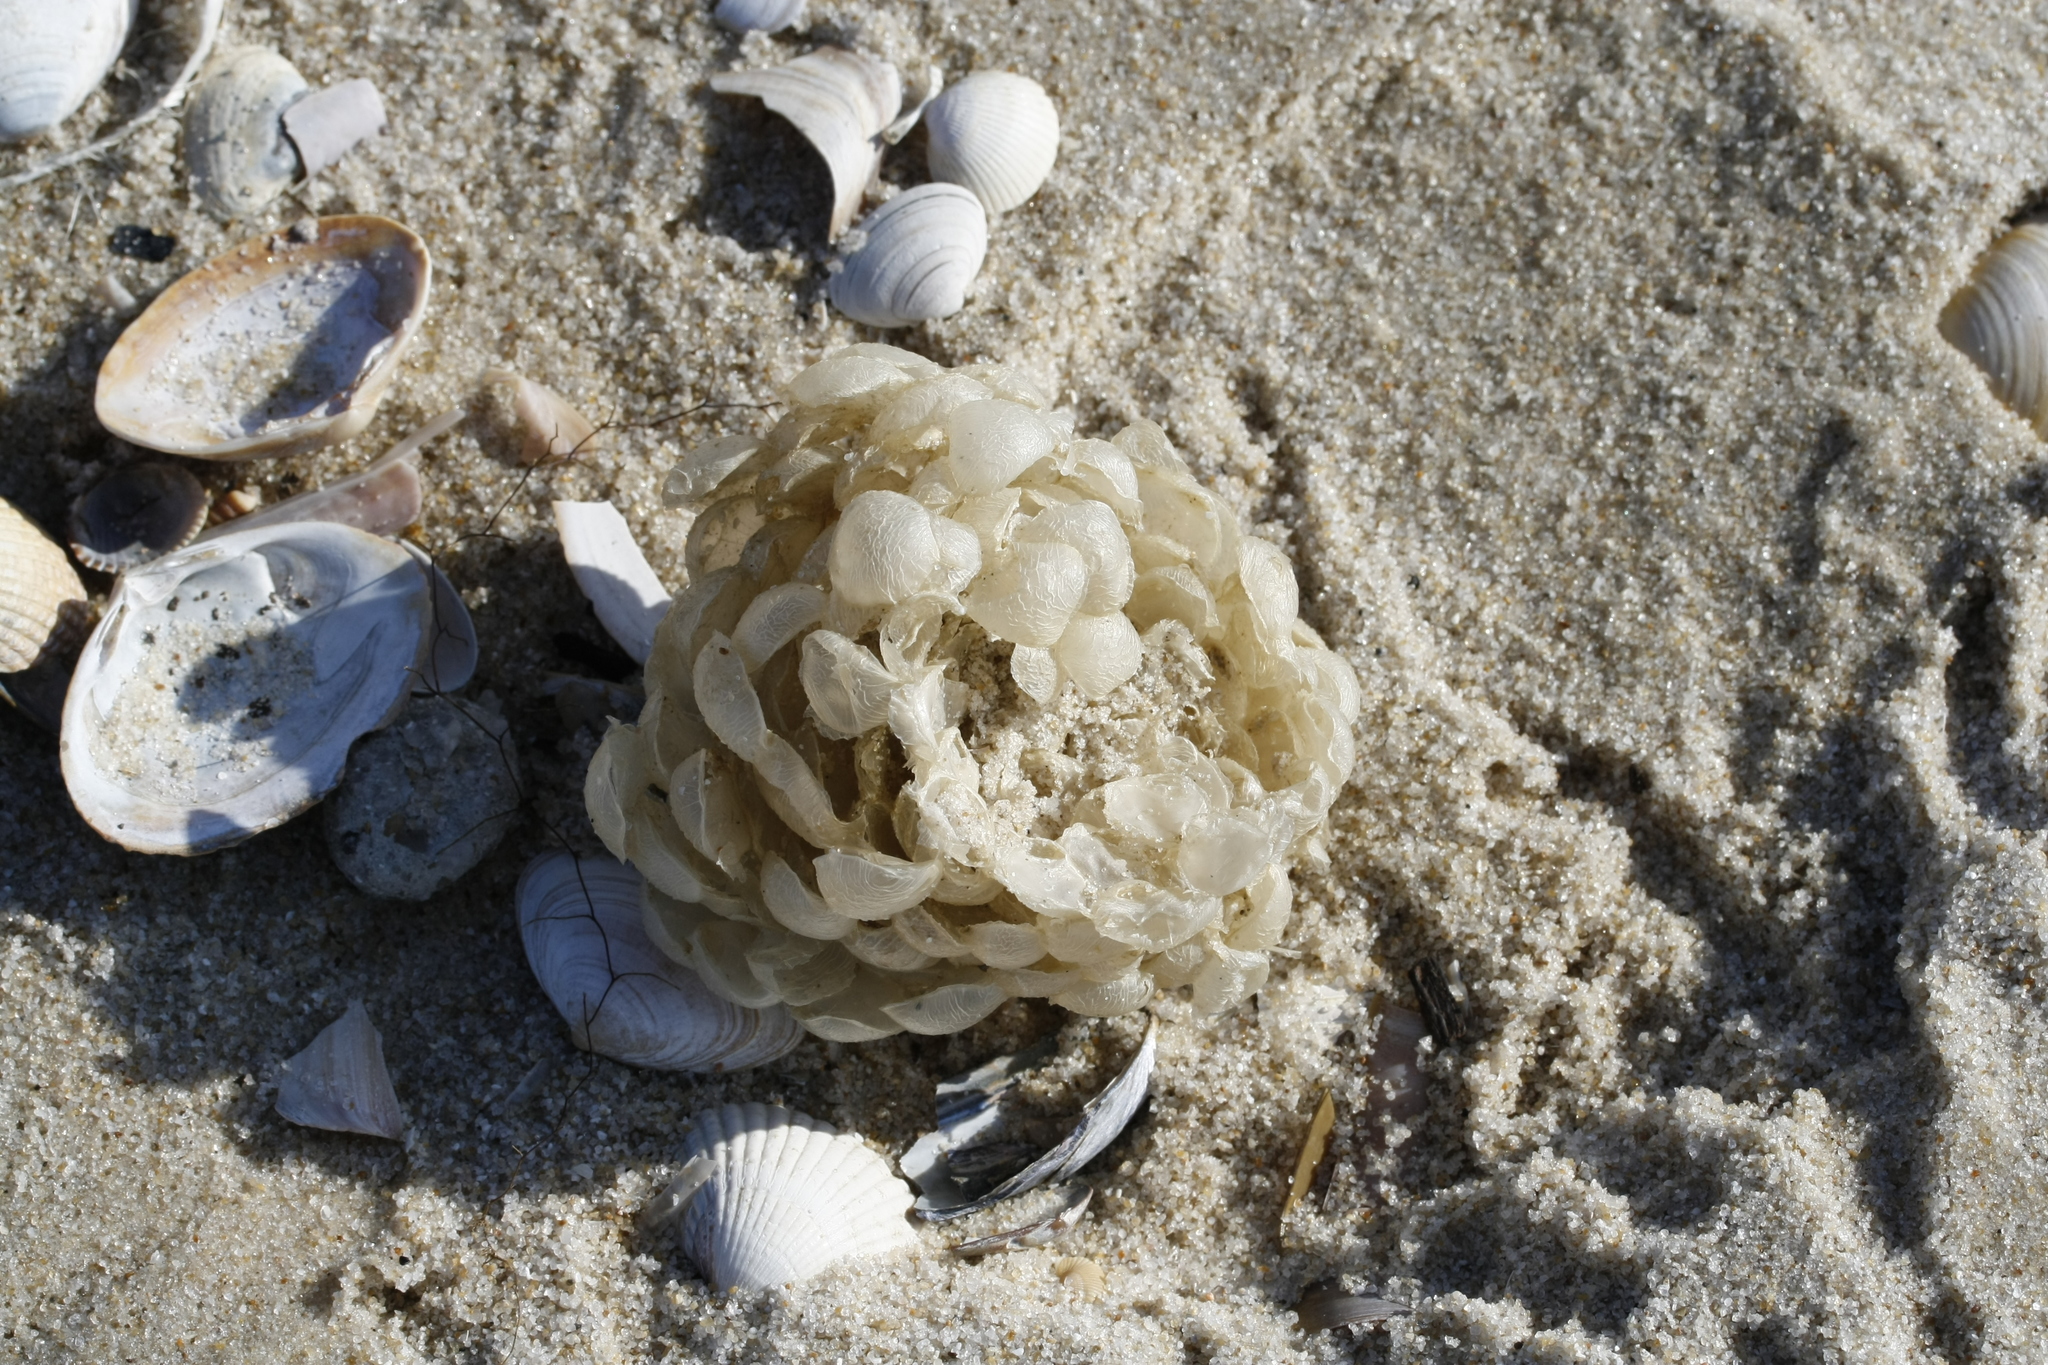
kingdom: Animalia
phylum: Mollusca
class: Gastropoda
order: Neogastropoda
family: Buccinidae
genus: Buccinum
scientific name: Buccinum undatum
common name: Common whelk
